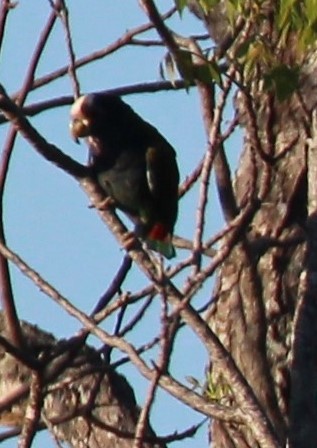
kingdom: Animalia
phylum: Chordata
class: Aves
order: Psittaciformes
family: Psittacidae
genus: Pionus
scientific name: Pionus senilis
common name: White-crowned parrot
